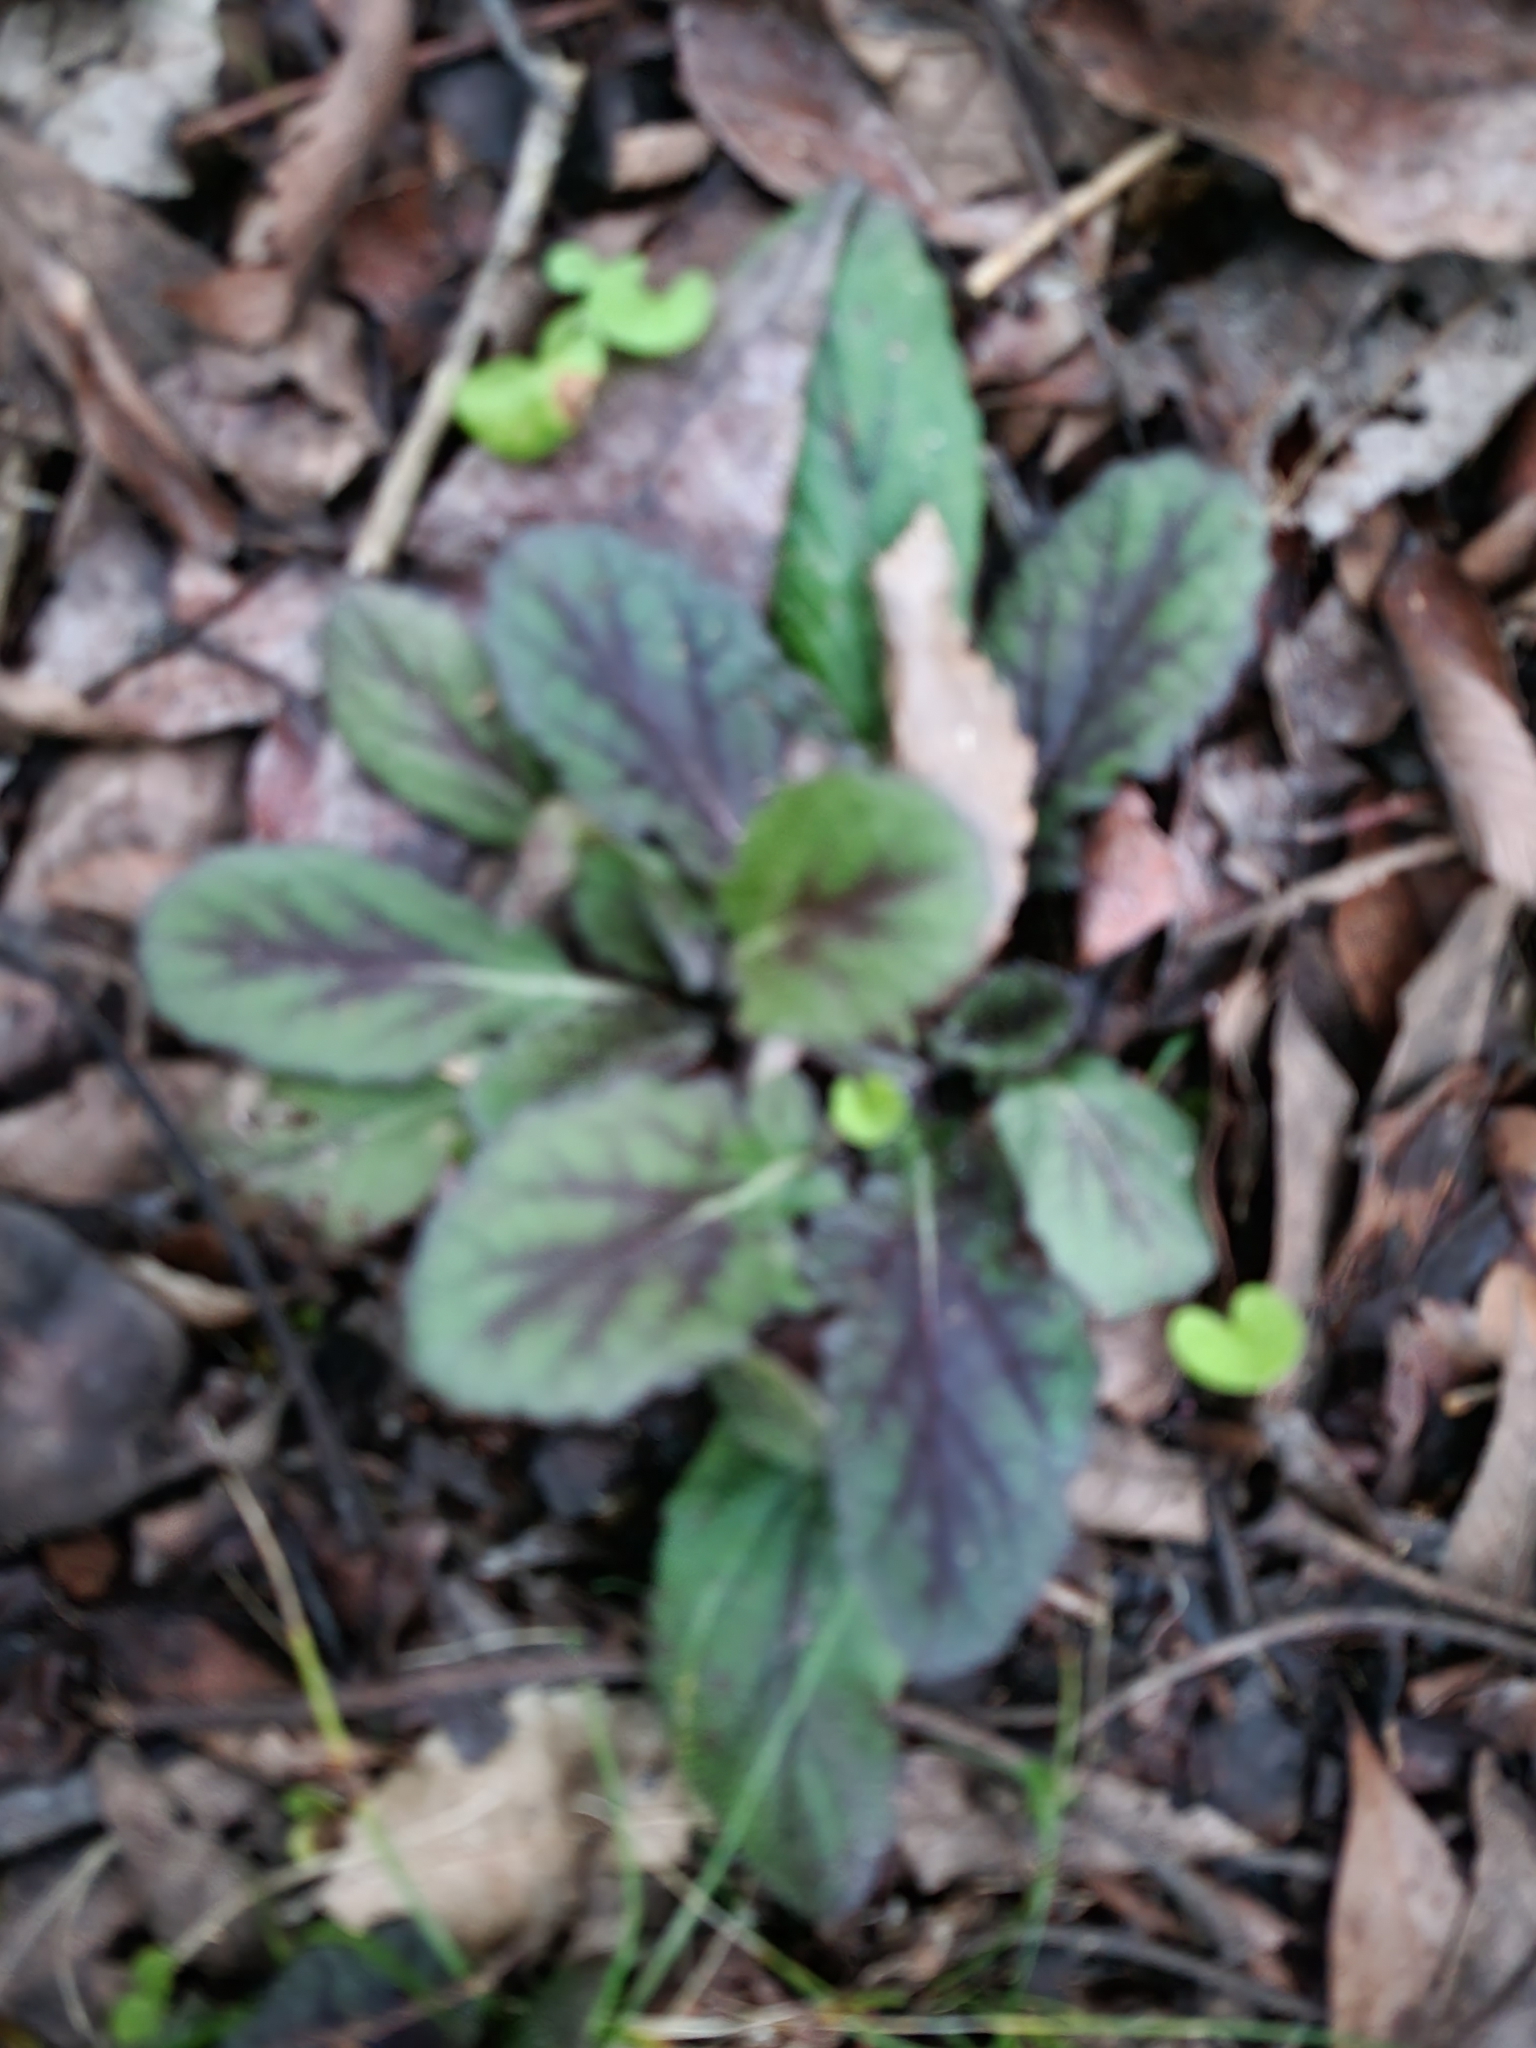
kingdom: Plantae
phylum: Tracheophyta
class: Magnoliopsida
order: Lamiales
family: Lamiaceae
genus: Salvia
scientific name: Salvia lyrata
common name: Cancerweed
